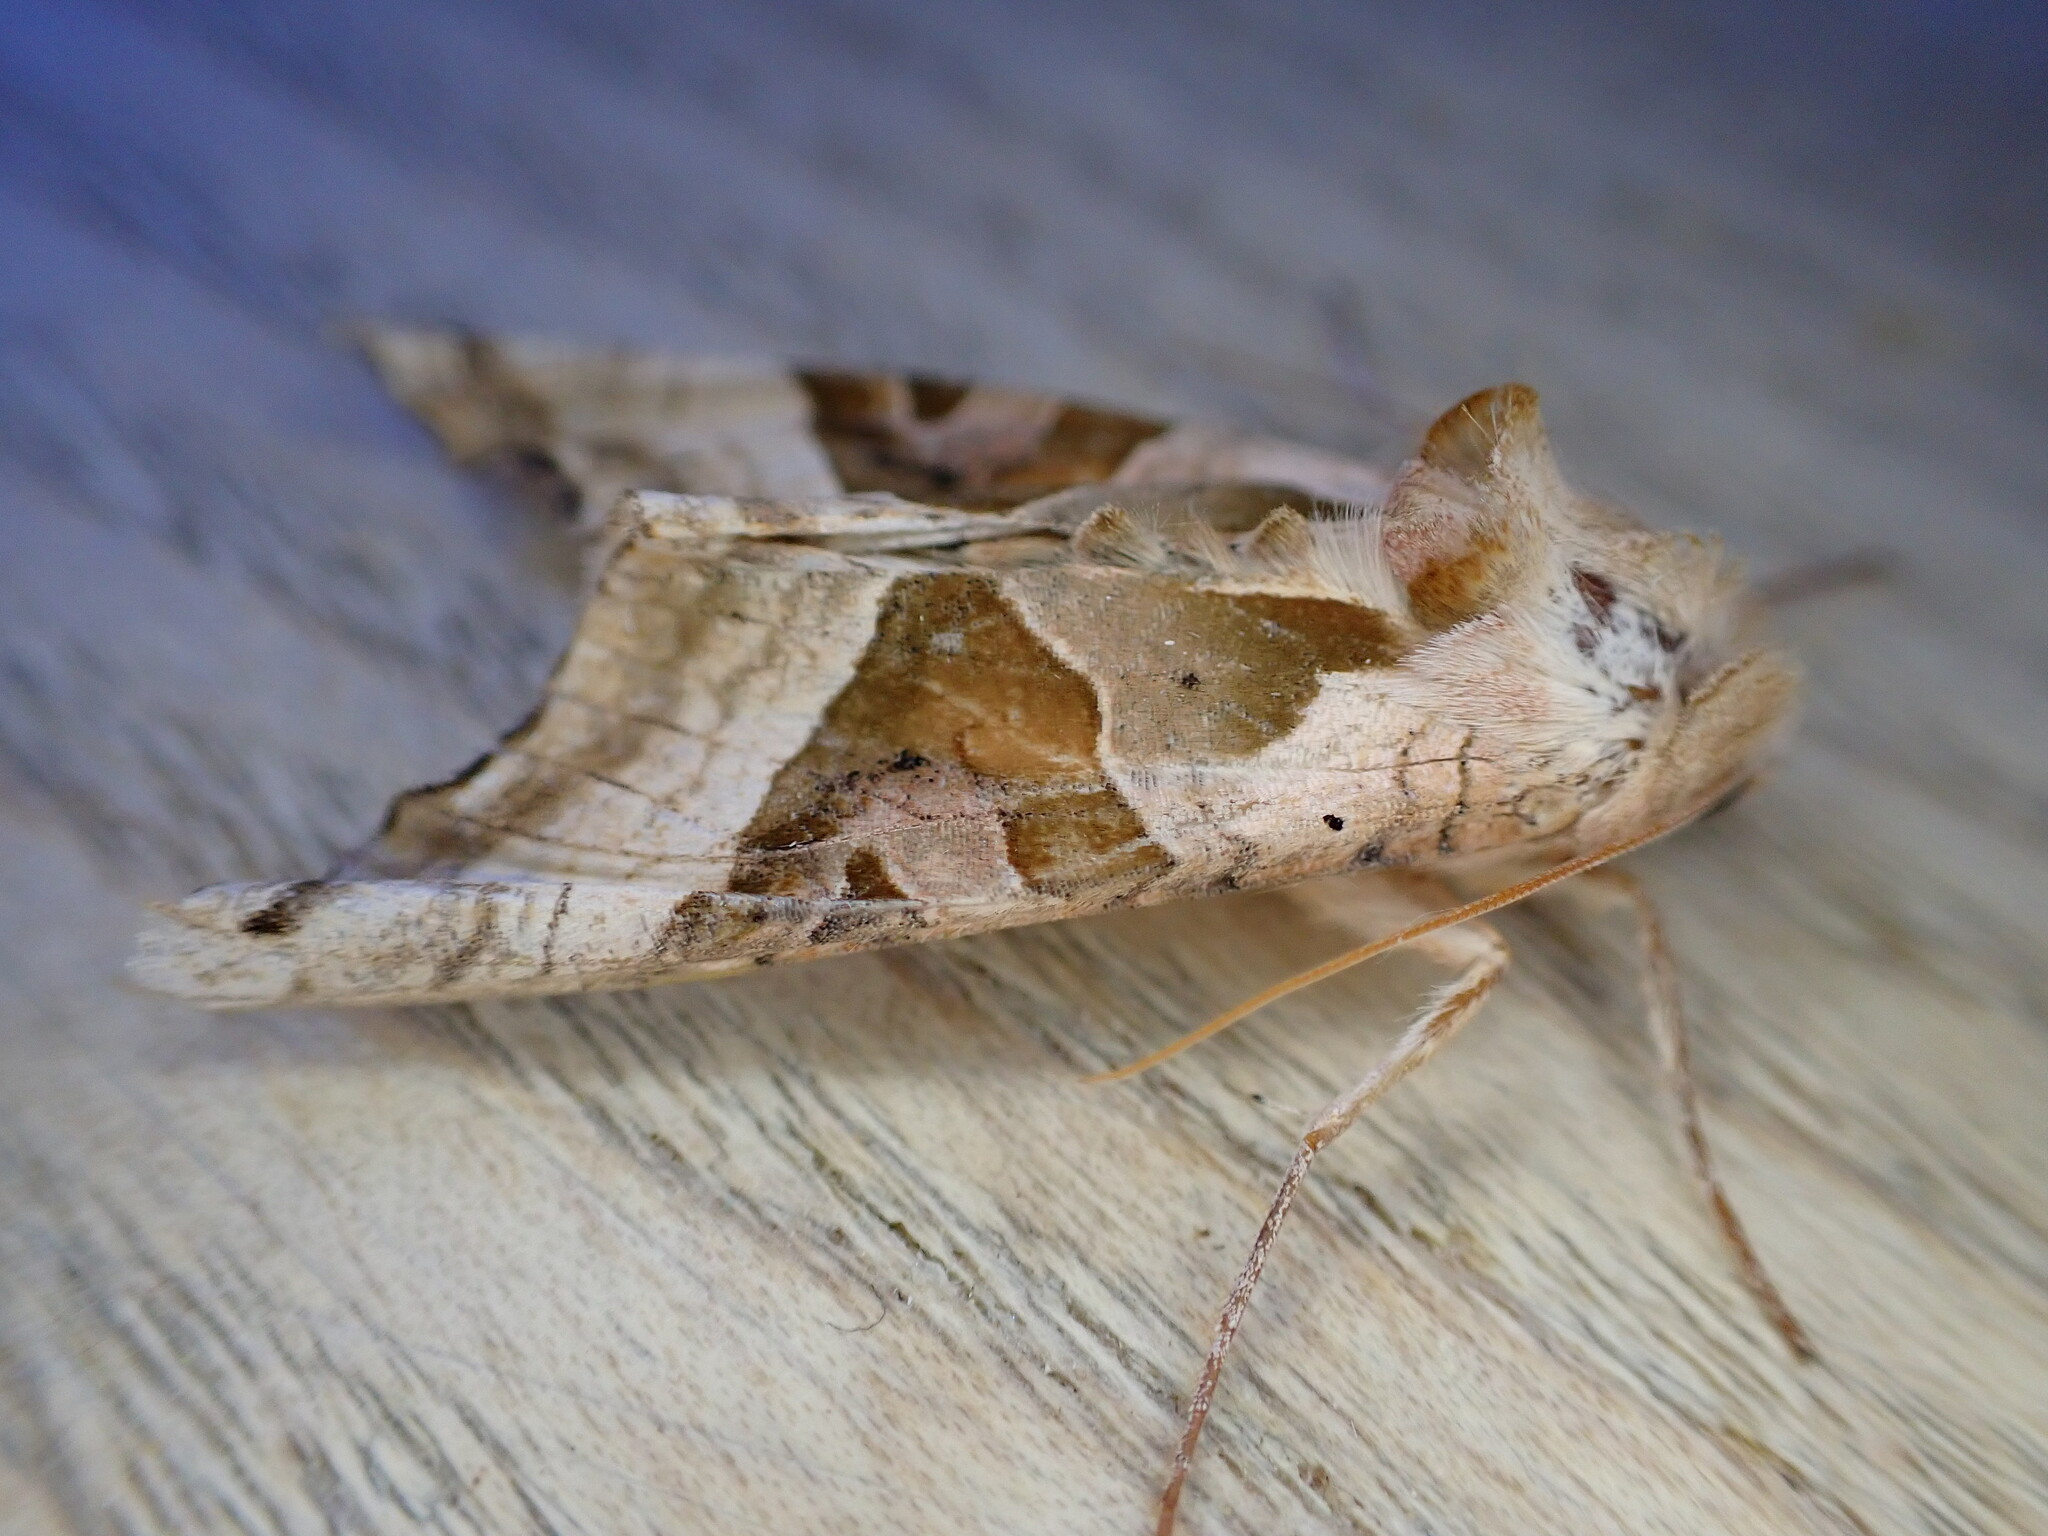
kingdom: Animalia
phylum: Arthropoda
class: Insecta
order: Lepidoptera
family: Noctuidae
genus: Phlogophora
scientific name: Phlogophora meticulosa
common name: Angle shades
